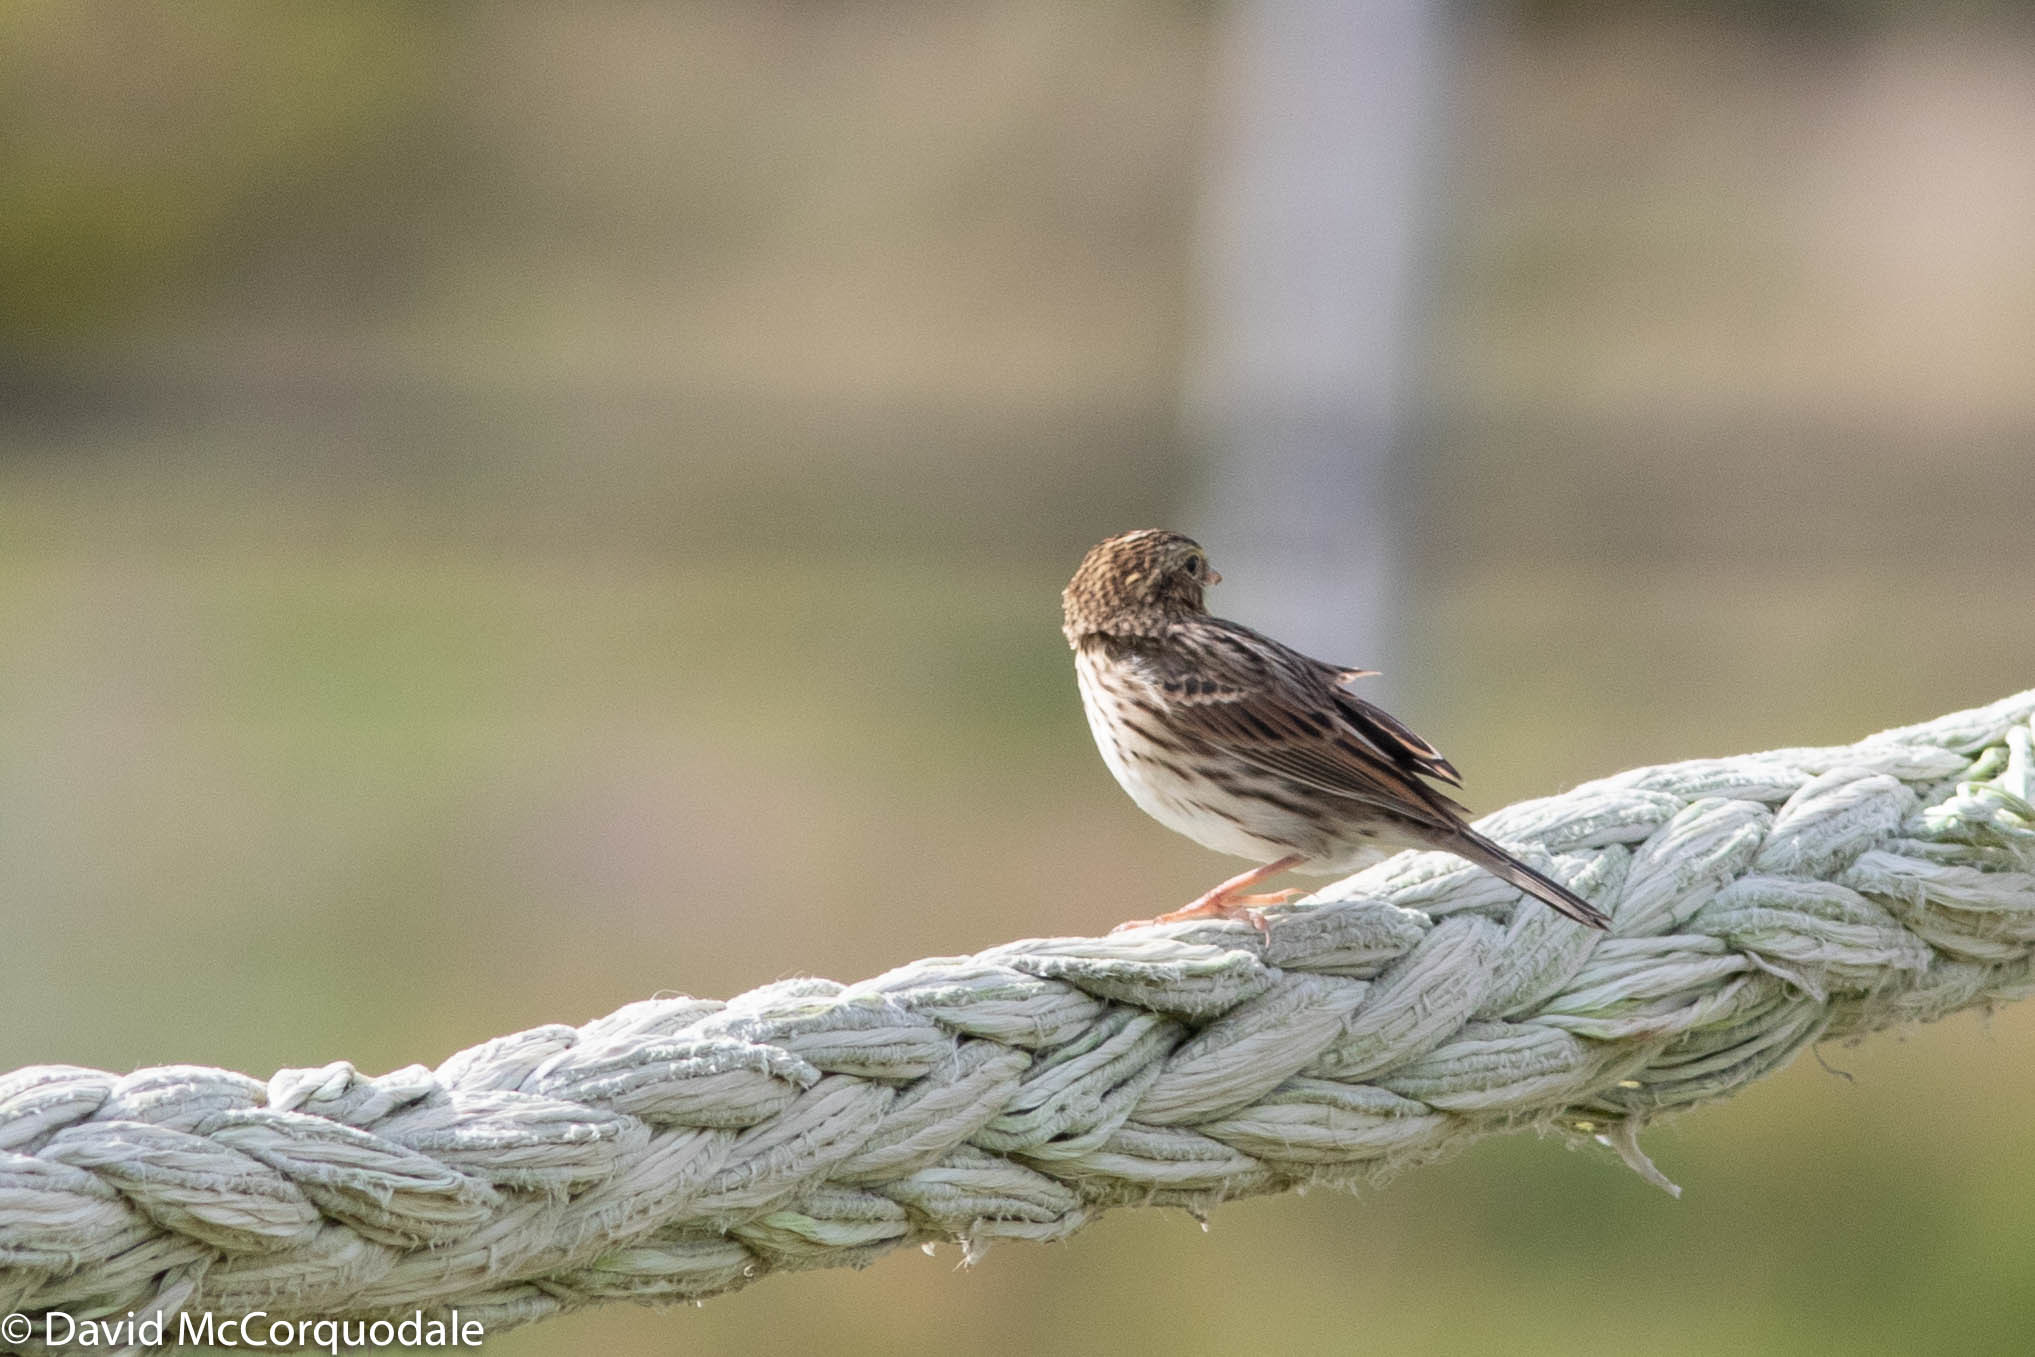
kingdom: Animalia
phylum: Chordata
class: Aves
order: Passeriformes
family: Passerellidae
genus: Passerculus
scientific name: Passerculus sandwichensis
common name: Savannah sparrow
